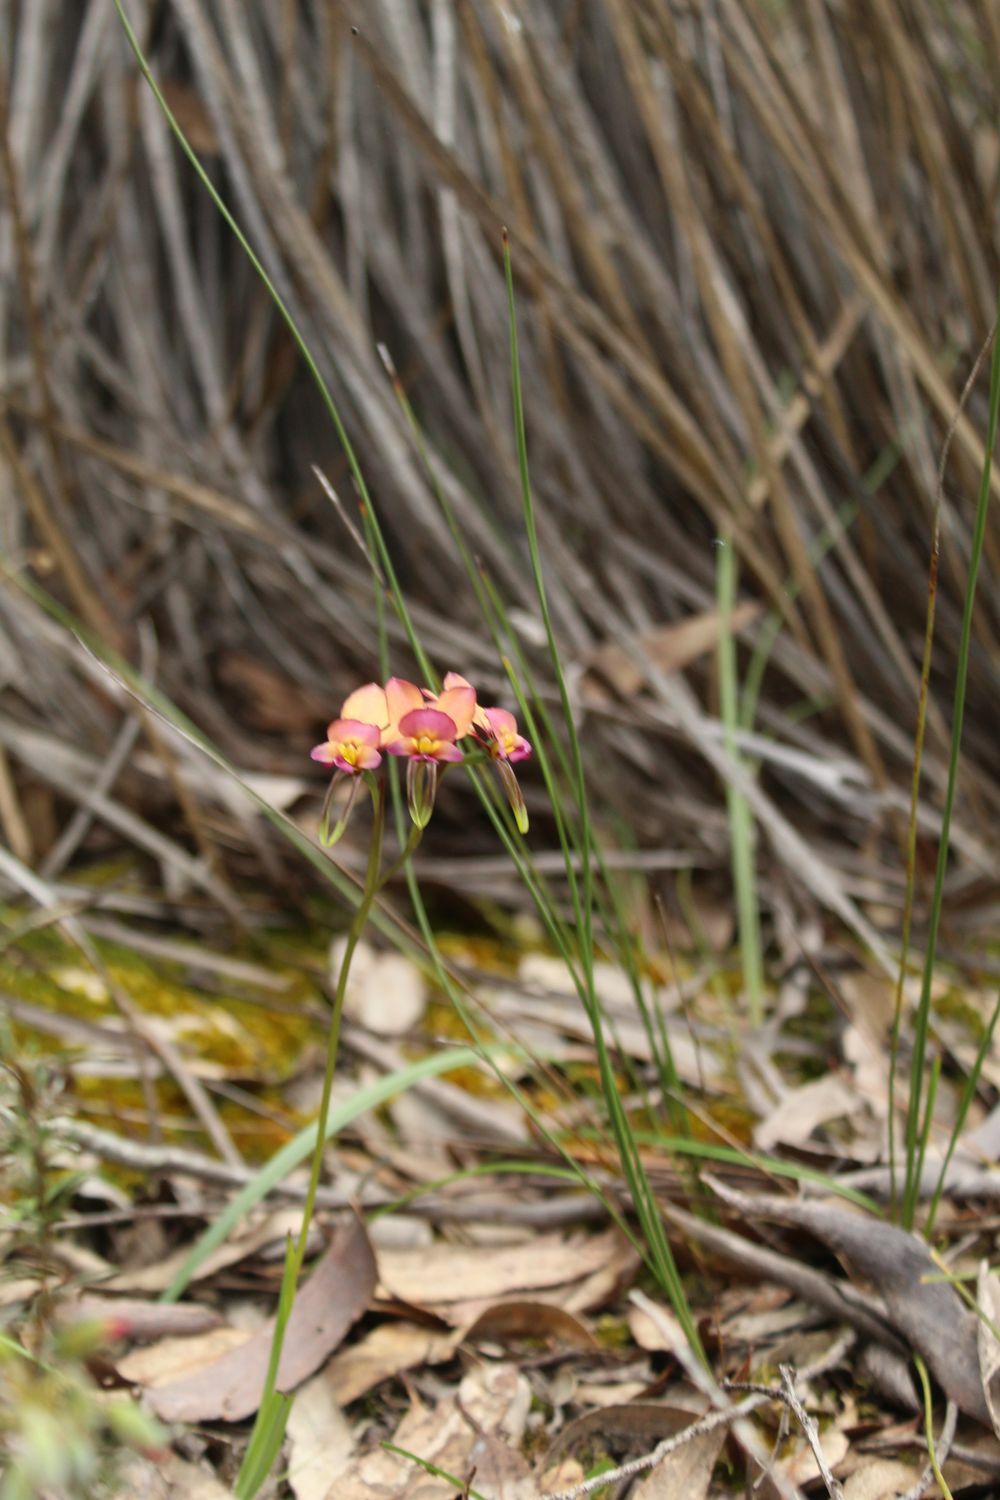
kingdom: Plantae
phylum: Tracheophyta
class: Liliopsida
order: Asparagales
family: Orchidaceae
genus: Diuris
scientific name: Diuris longifolia
